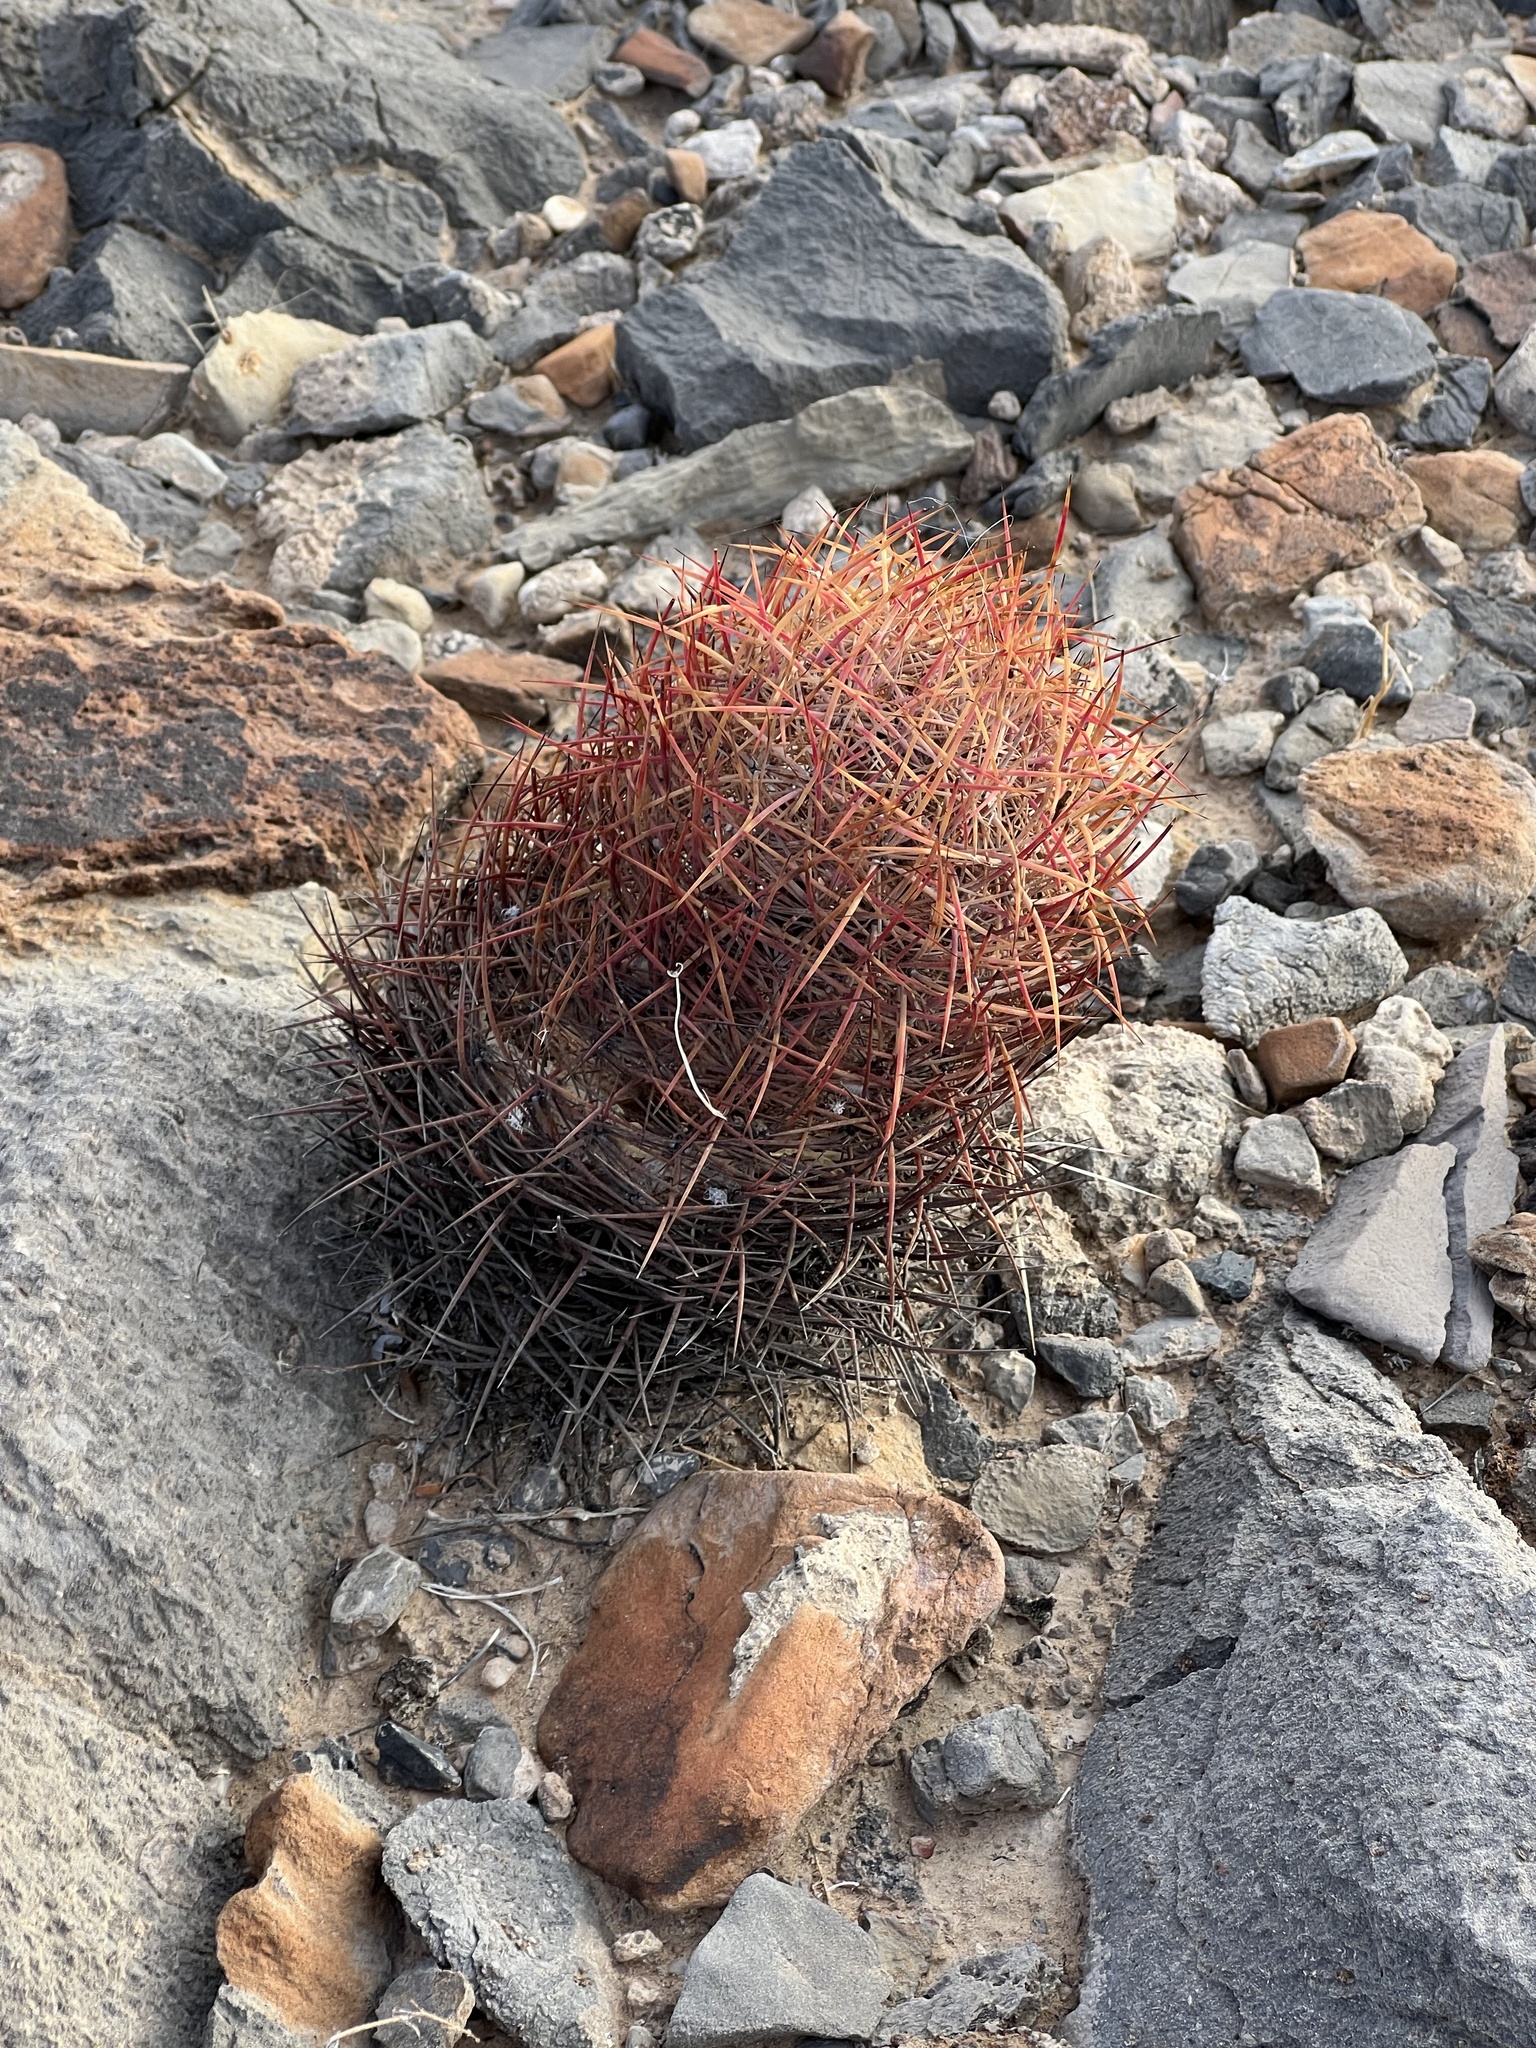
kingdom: Plantae
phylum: Tracheophyta
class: Magnoliopsida
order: Caryophyllales
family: Cactaceae
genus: Ferocactus
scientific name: Ferocactus cylindraceus
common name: California barrel cactus
